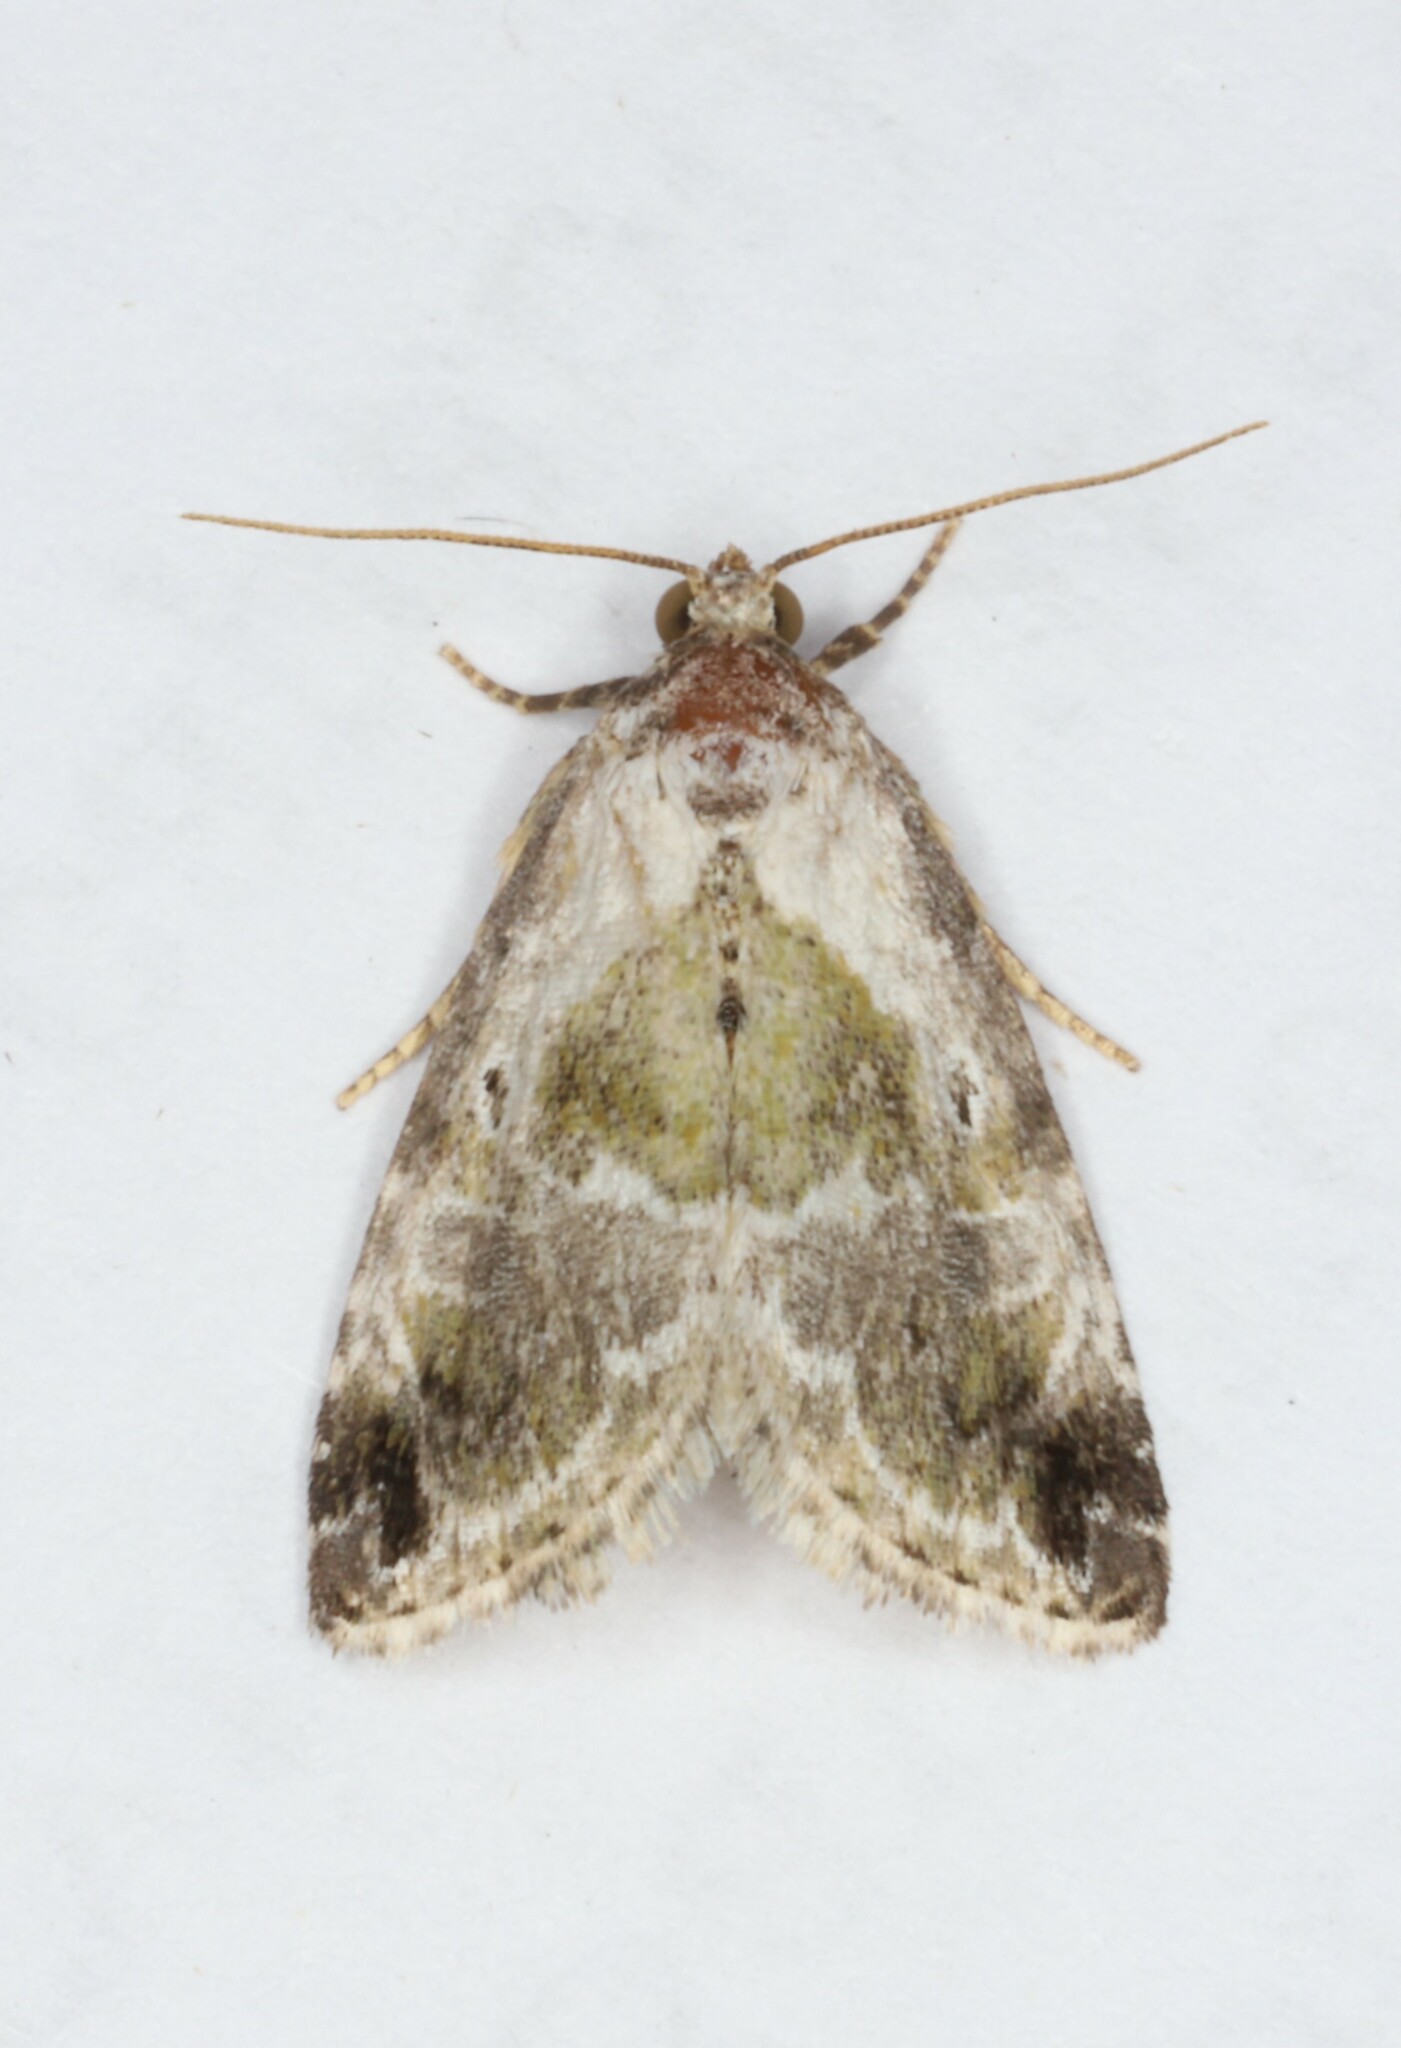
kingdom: Animalia
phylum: Arthropoda
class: Insecta
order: Lepidoptera
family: Noctuidae
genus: Maliattha
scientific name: Maliattha synochitis
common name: Black-dotted glyph
